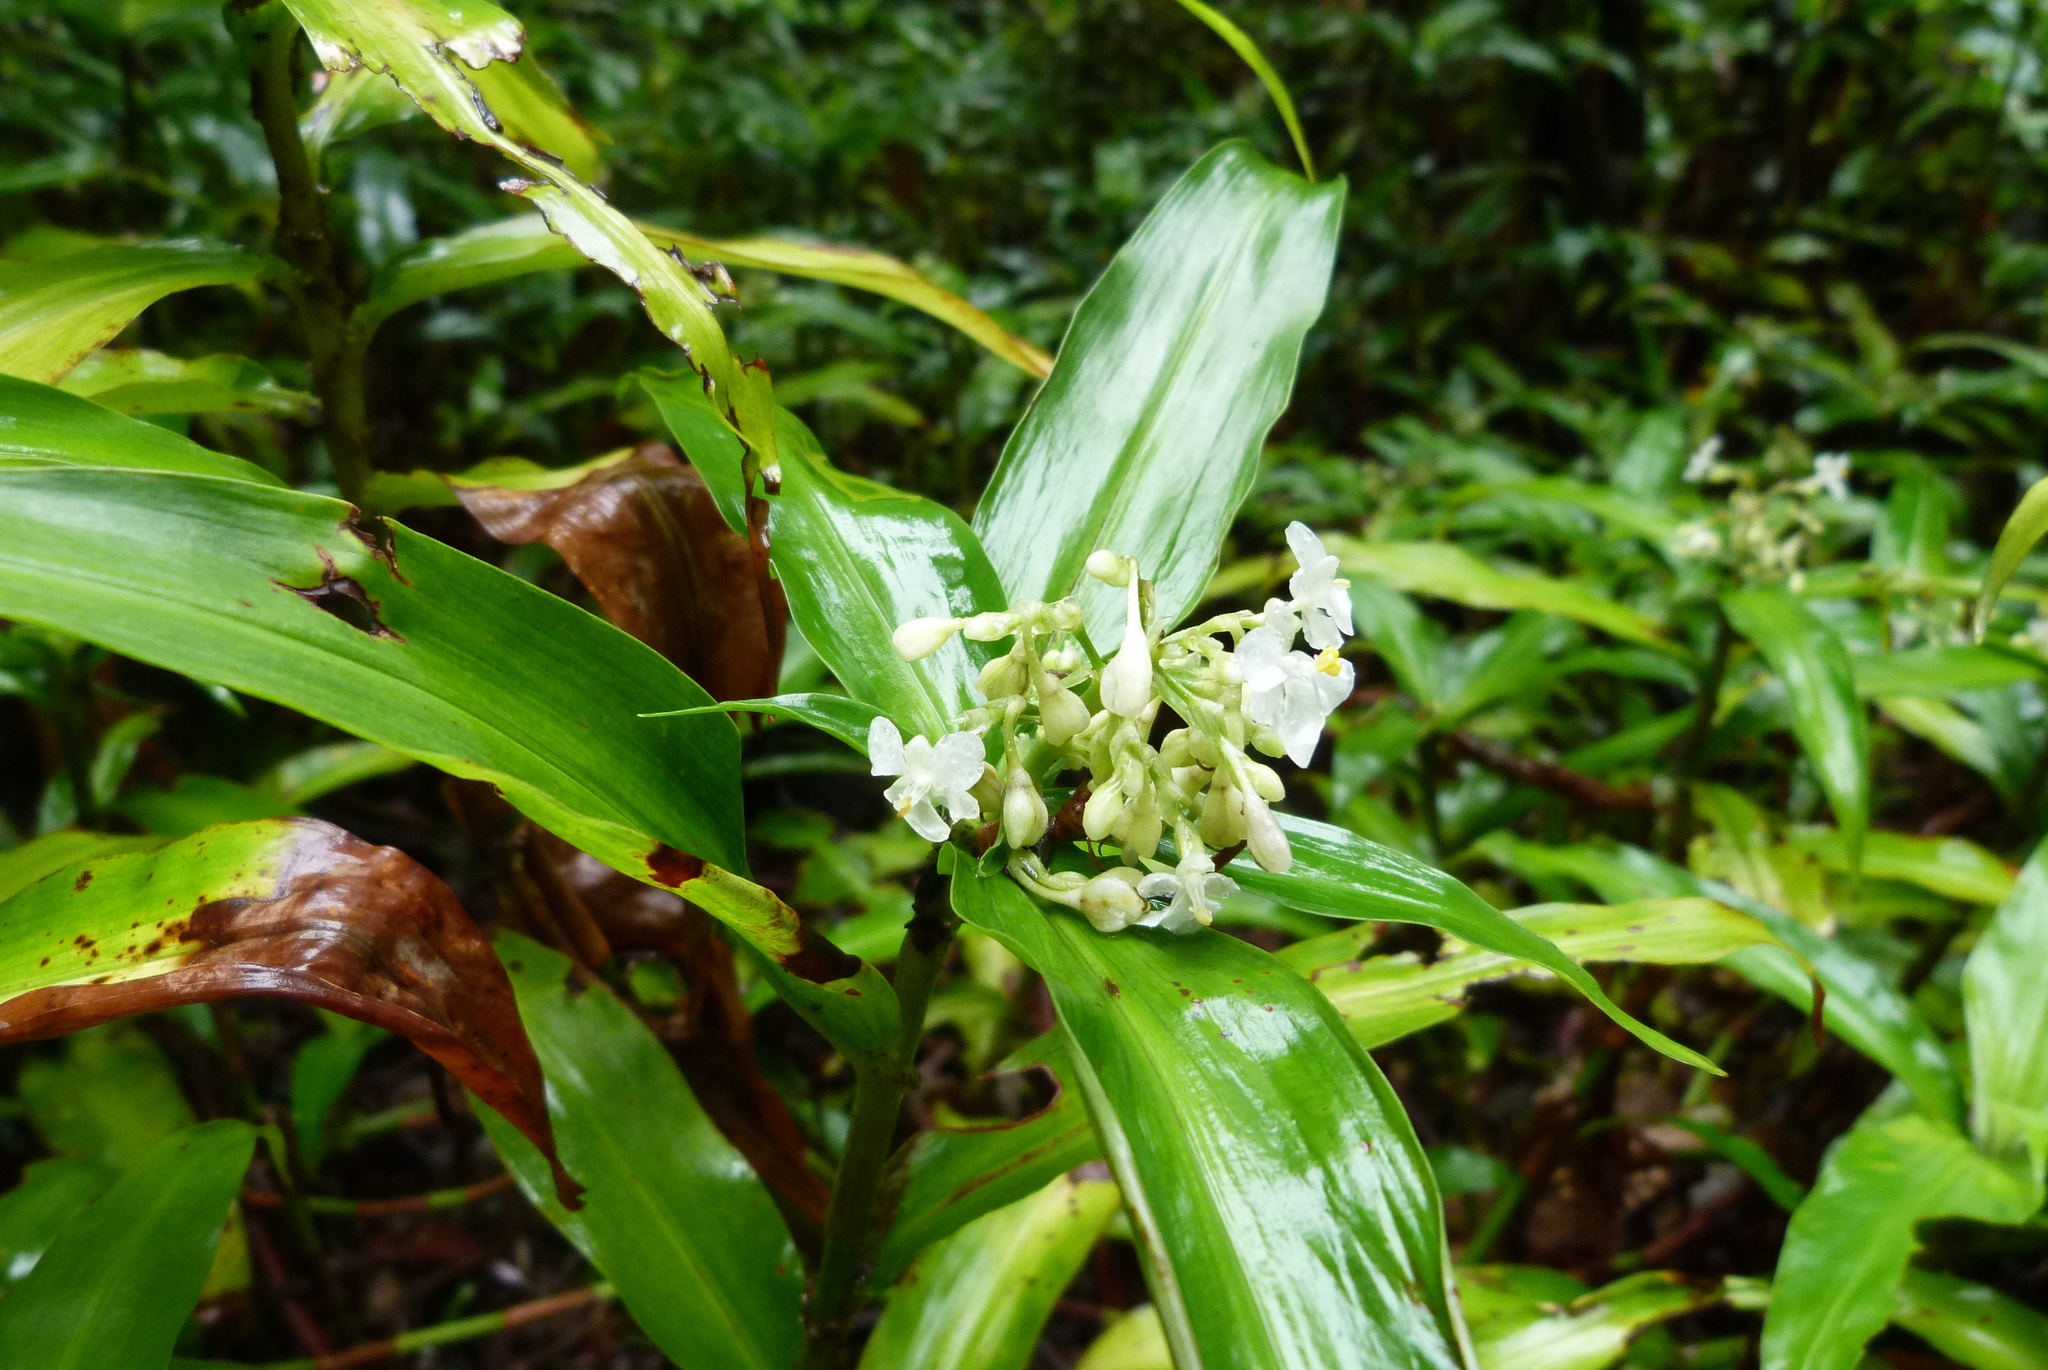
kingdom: Plantae
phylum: Tracheophyta
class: Liliopsida
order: Commelinales
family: Commelinaceae
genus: Pollia
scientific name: Pollia crispata
